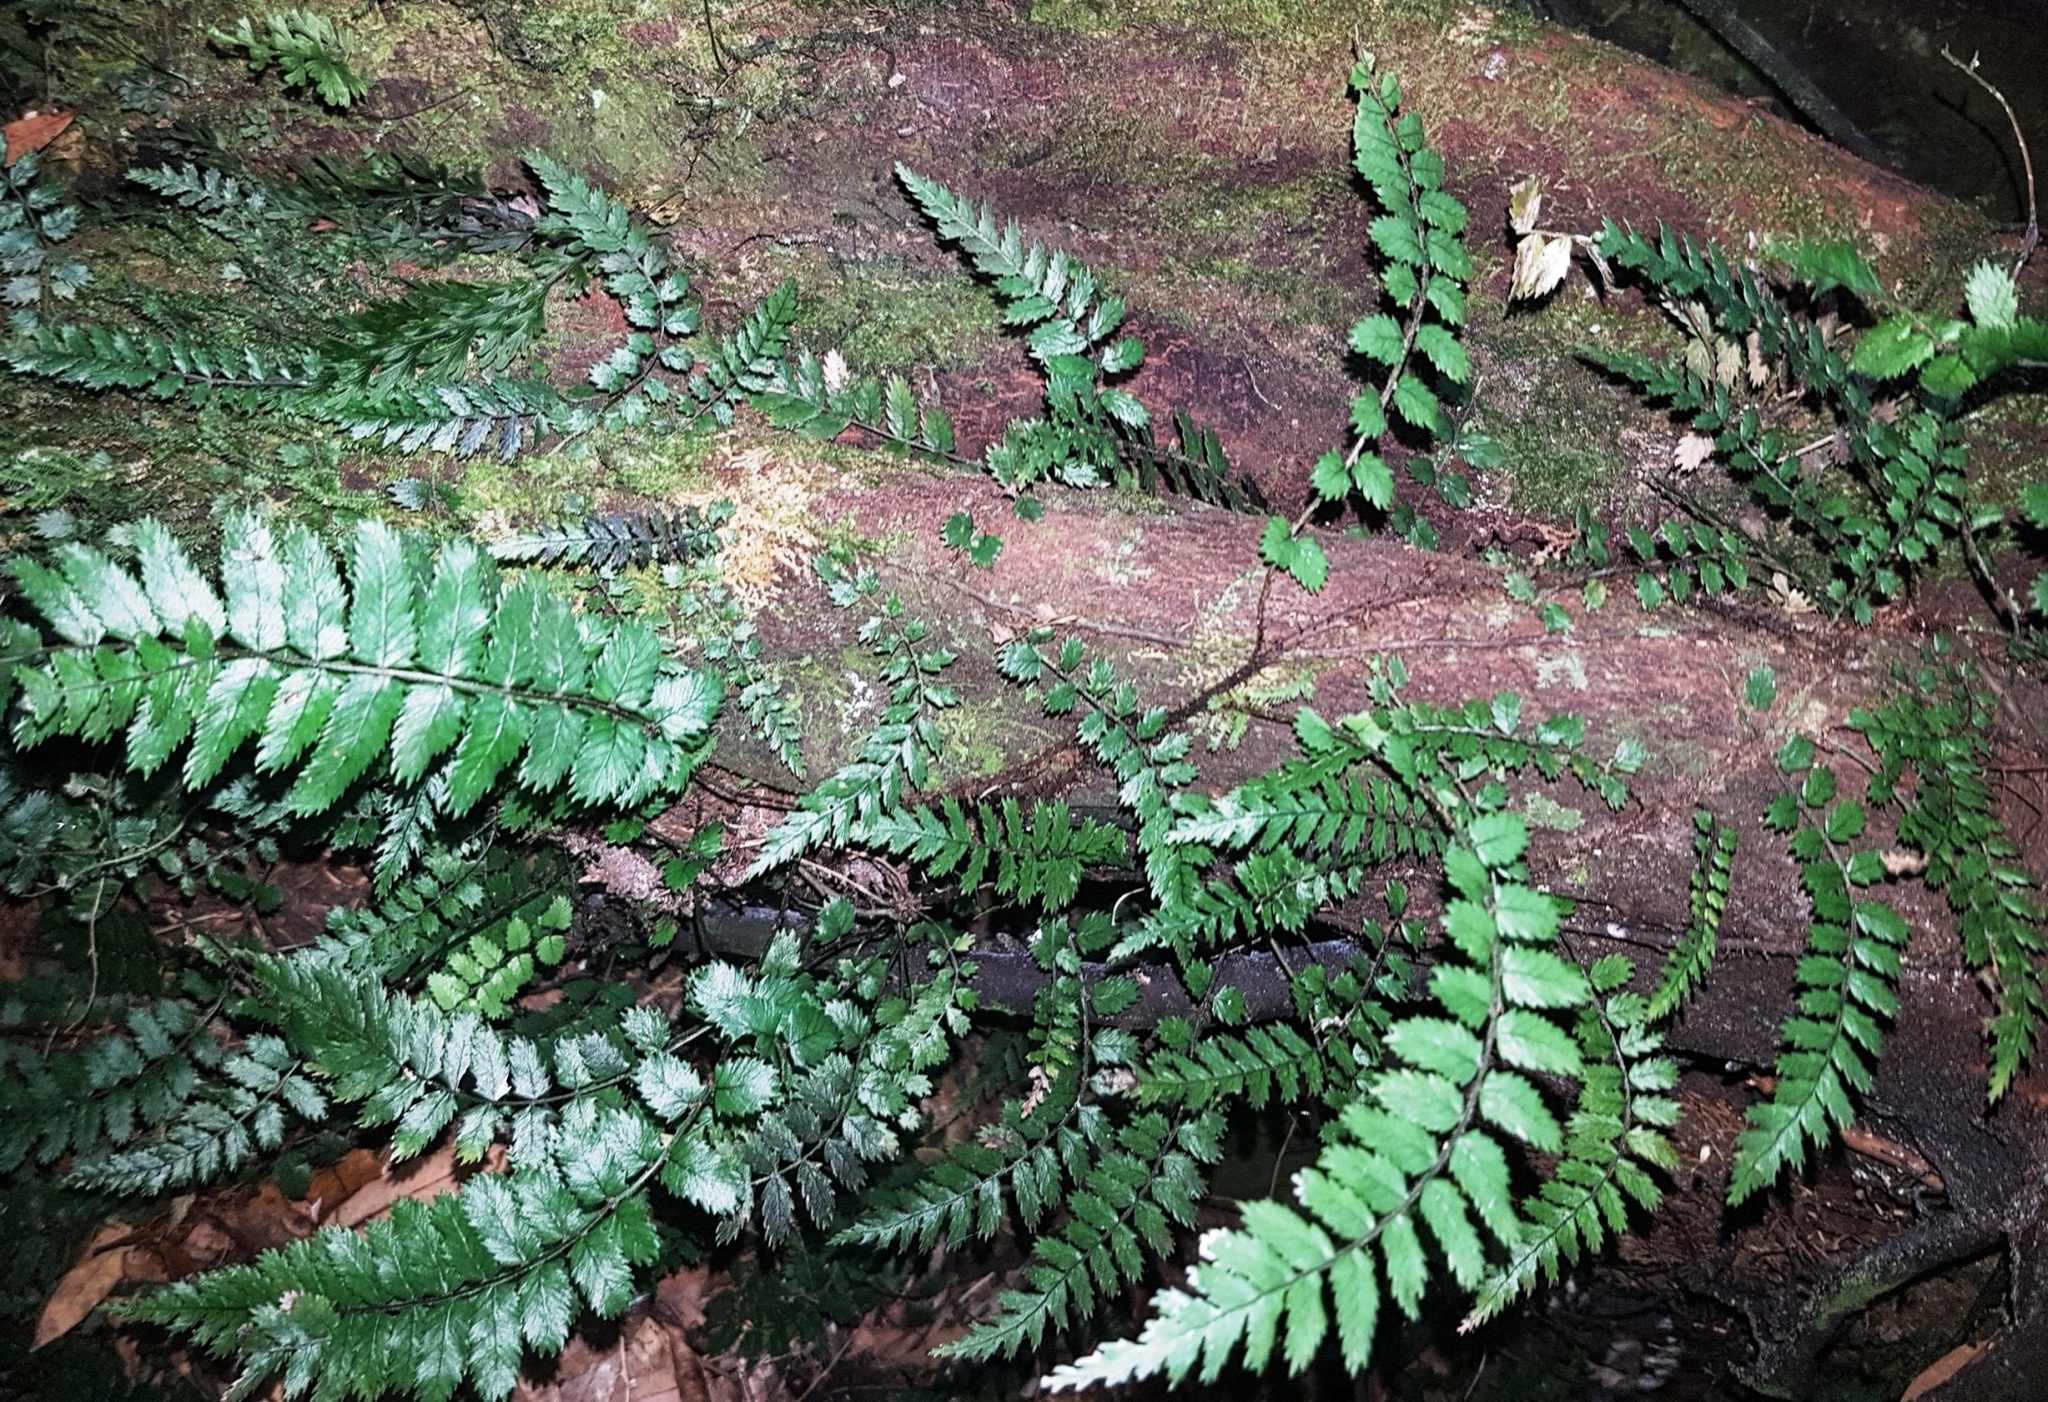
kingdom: Plantae
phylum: Tracheophyta
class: Polypodiopsida
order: Polypodiales
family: Blechnaceae
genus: Icarus
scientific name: Icarus filiformis
